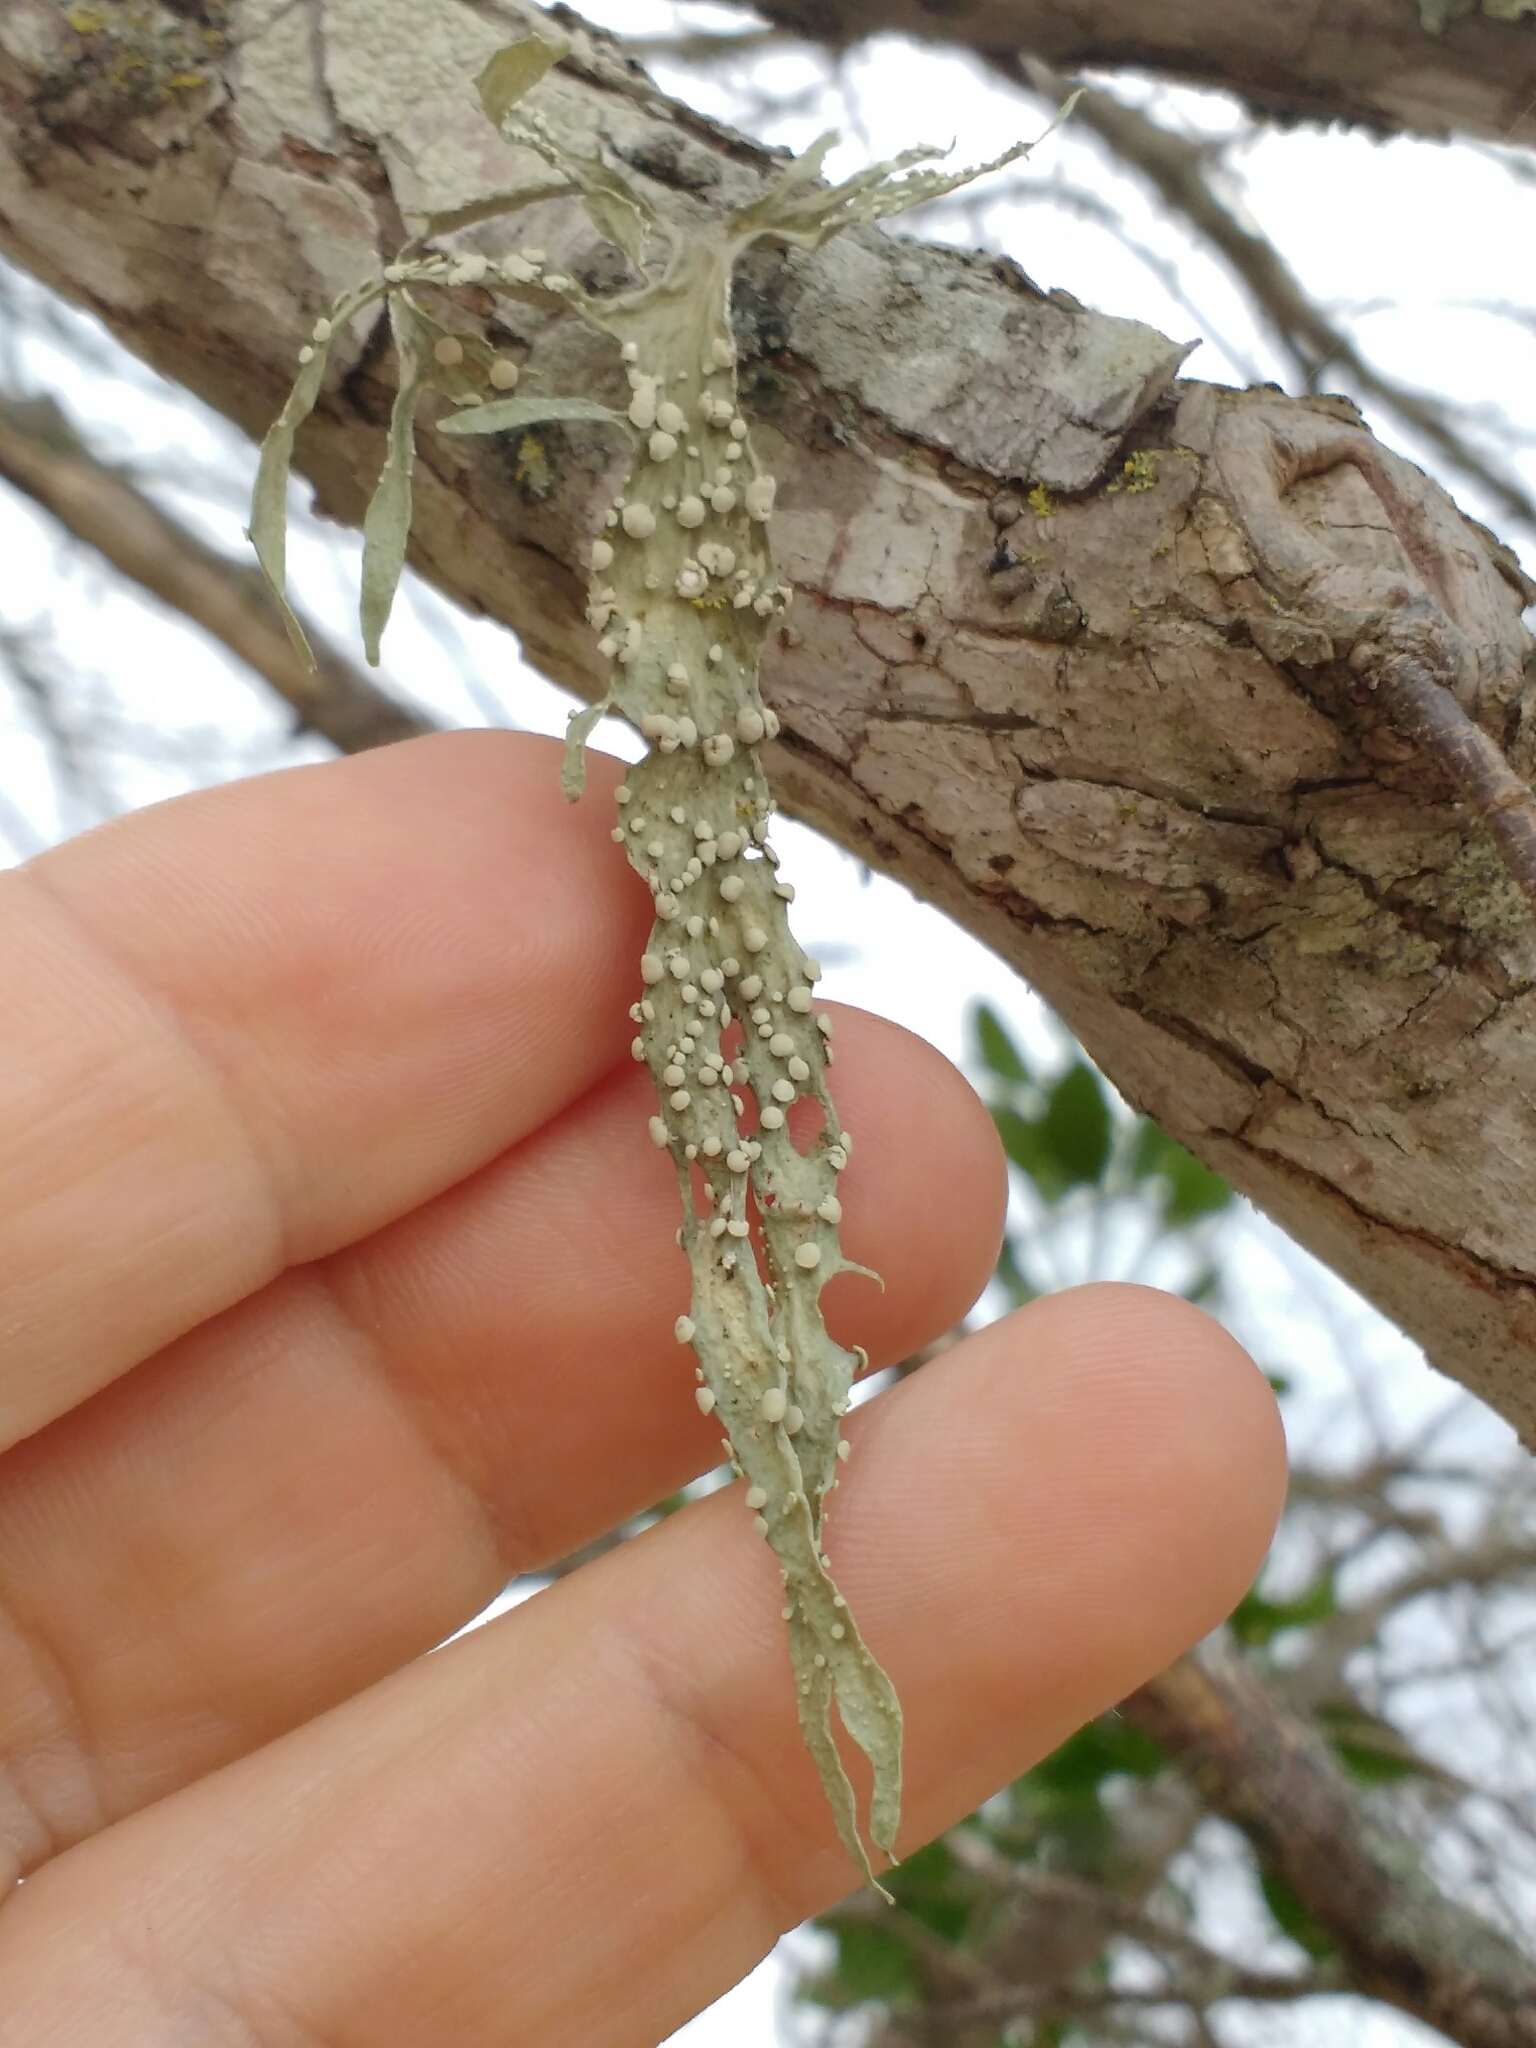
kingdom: Fungi
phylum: Ascomycota
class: Lecanoromycetes
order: Lecanorales
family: Ramalinaceae
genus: Ramalina
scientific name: Ramalina celastri
